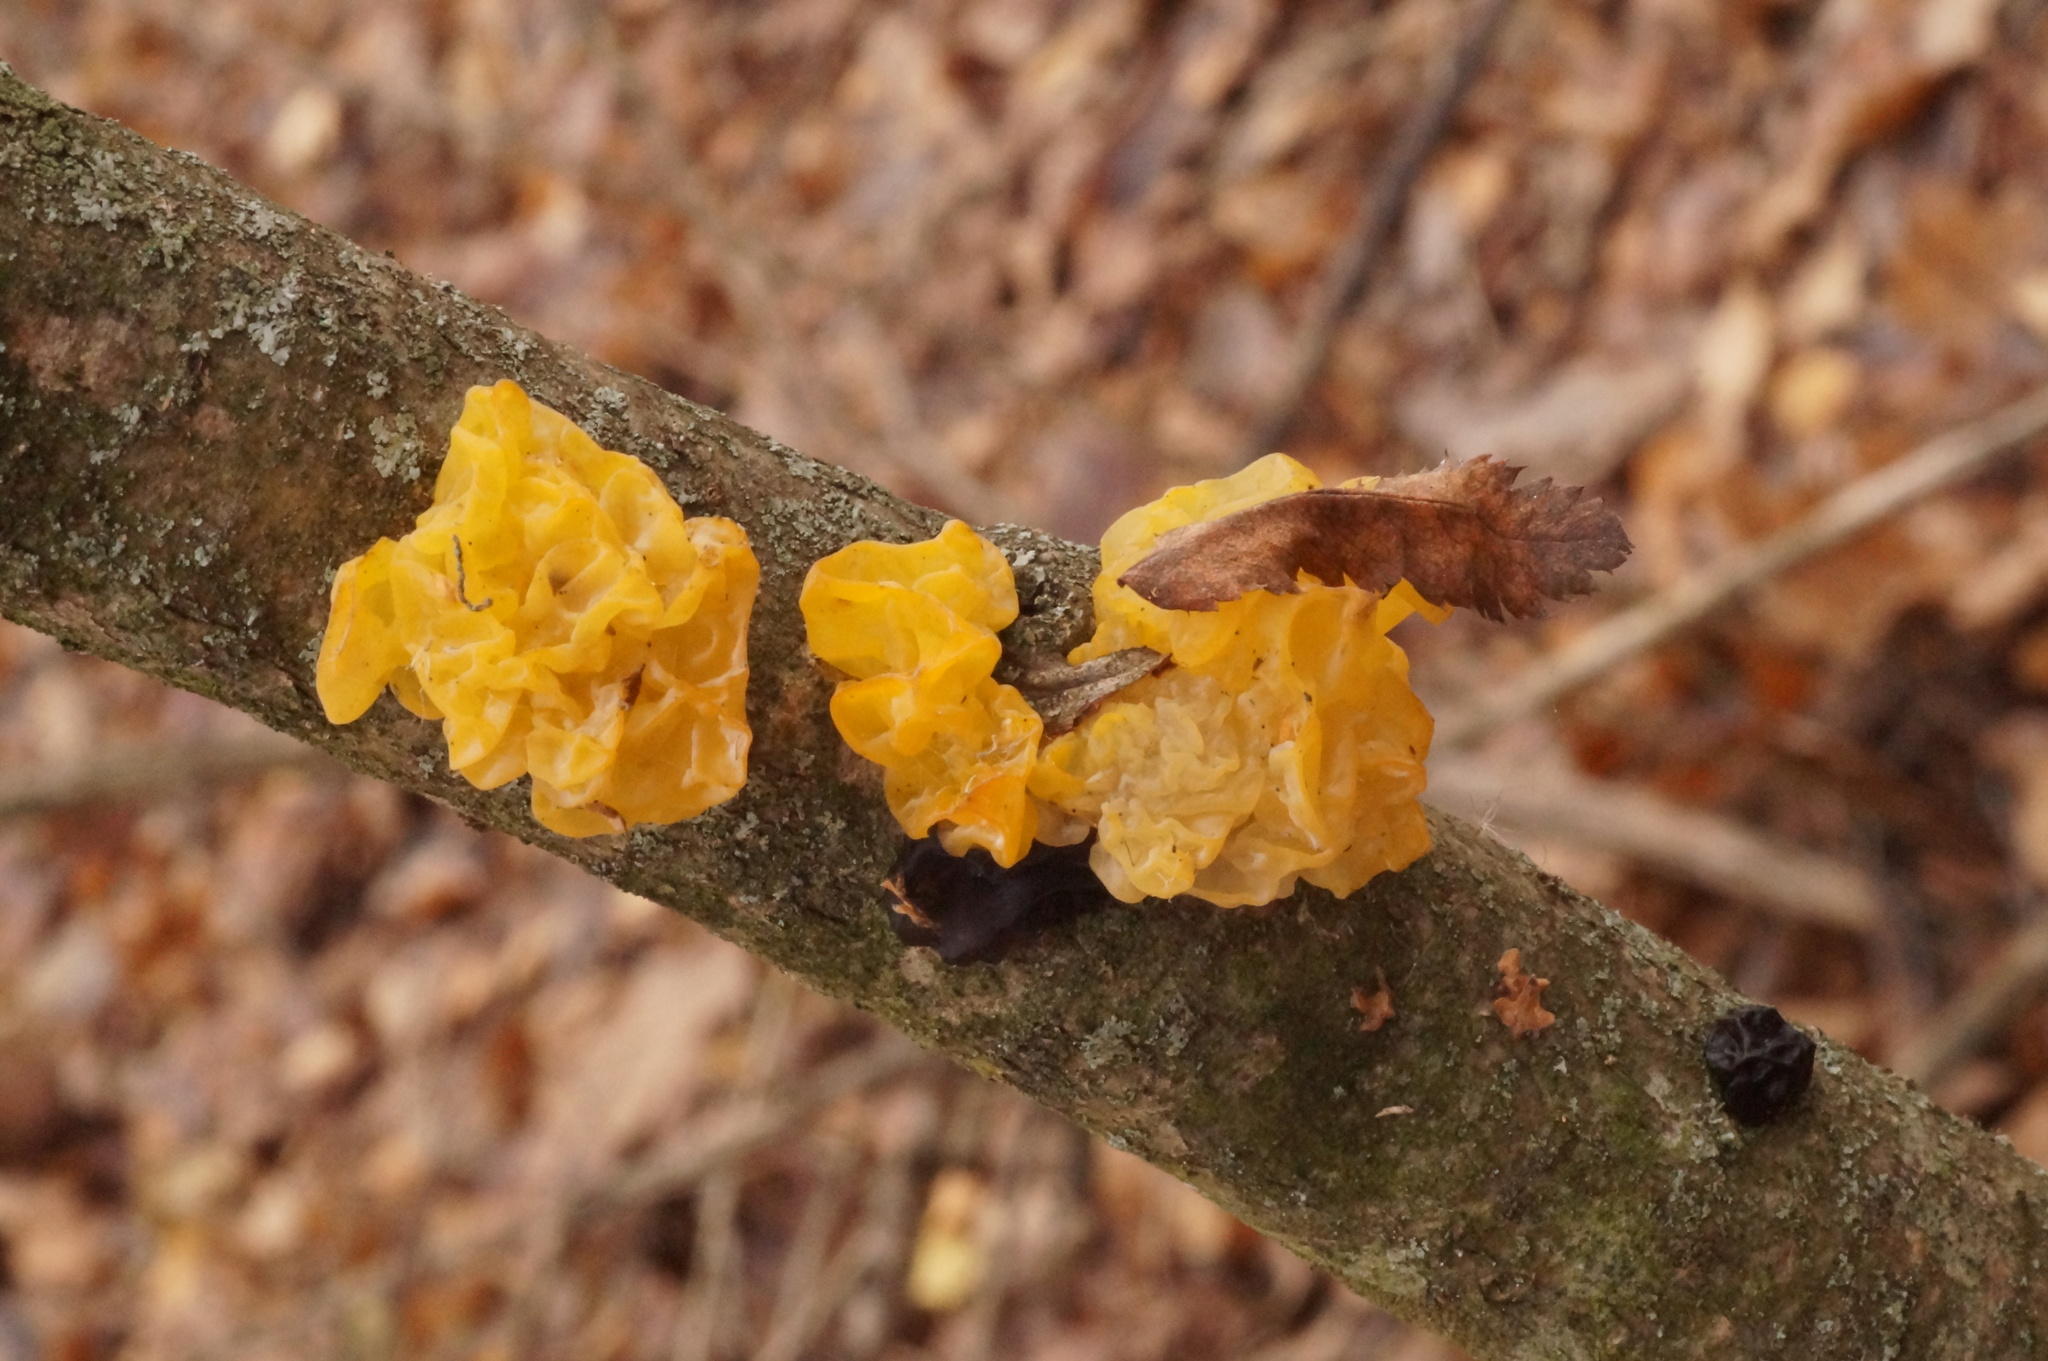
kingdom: Fungi
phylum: Basidiomycota
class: Tremellomycetes
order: Tremellales
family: Tremellaceae
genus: Tremella
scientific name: Tremella mesenterica
